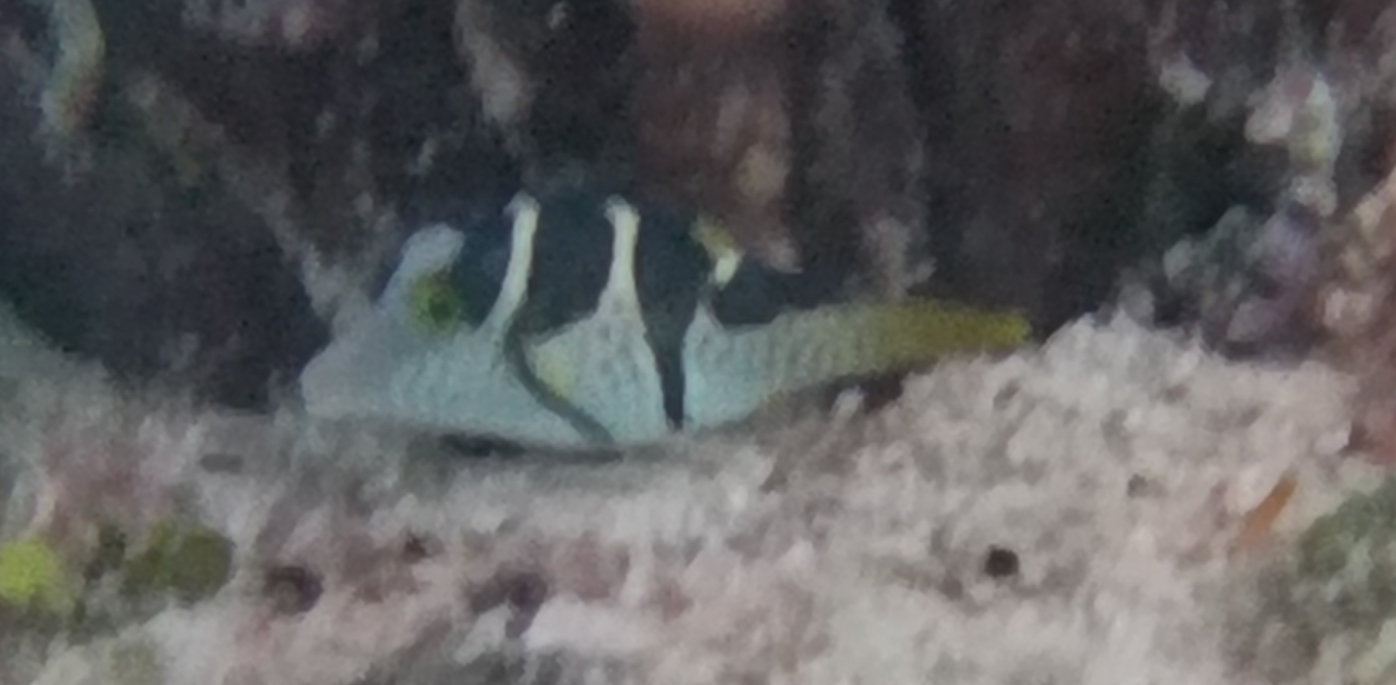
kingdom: Animalia
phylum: Chordata
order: Tetraodontiformes
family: Tetraodontidae
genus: Canthigaster
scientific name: Canthigaster valentini
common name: Banded toby
